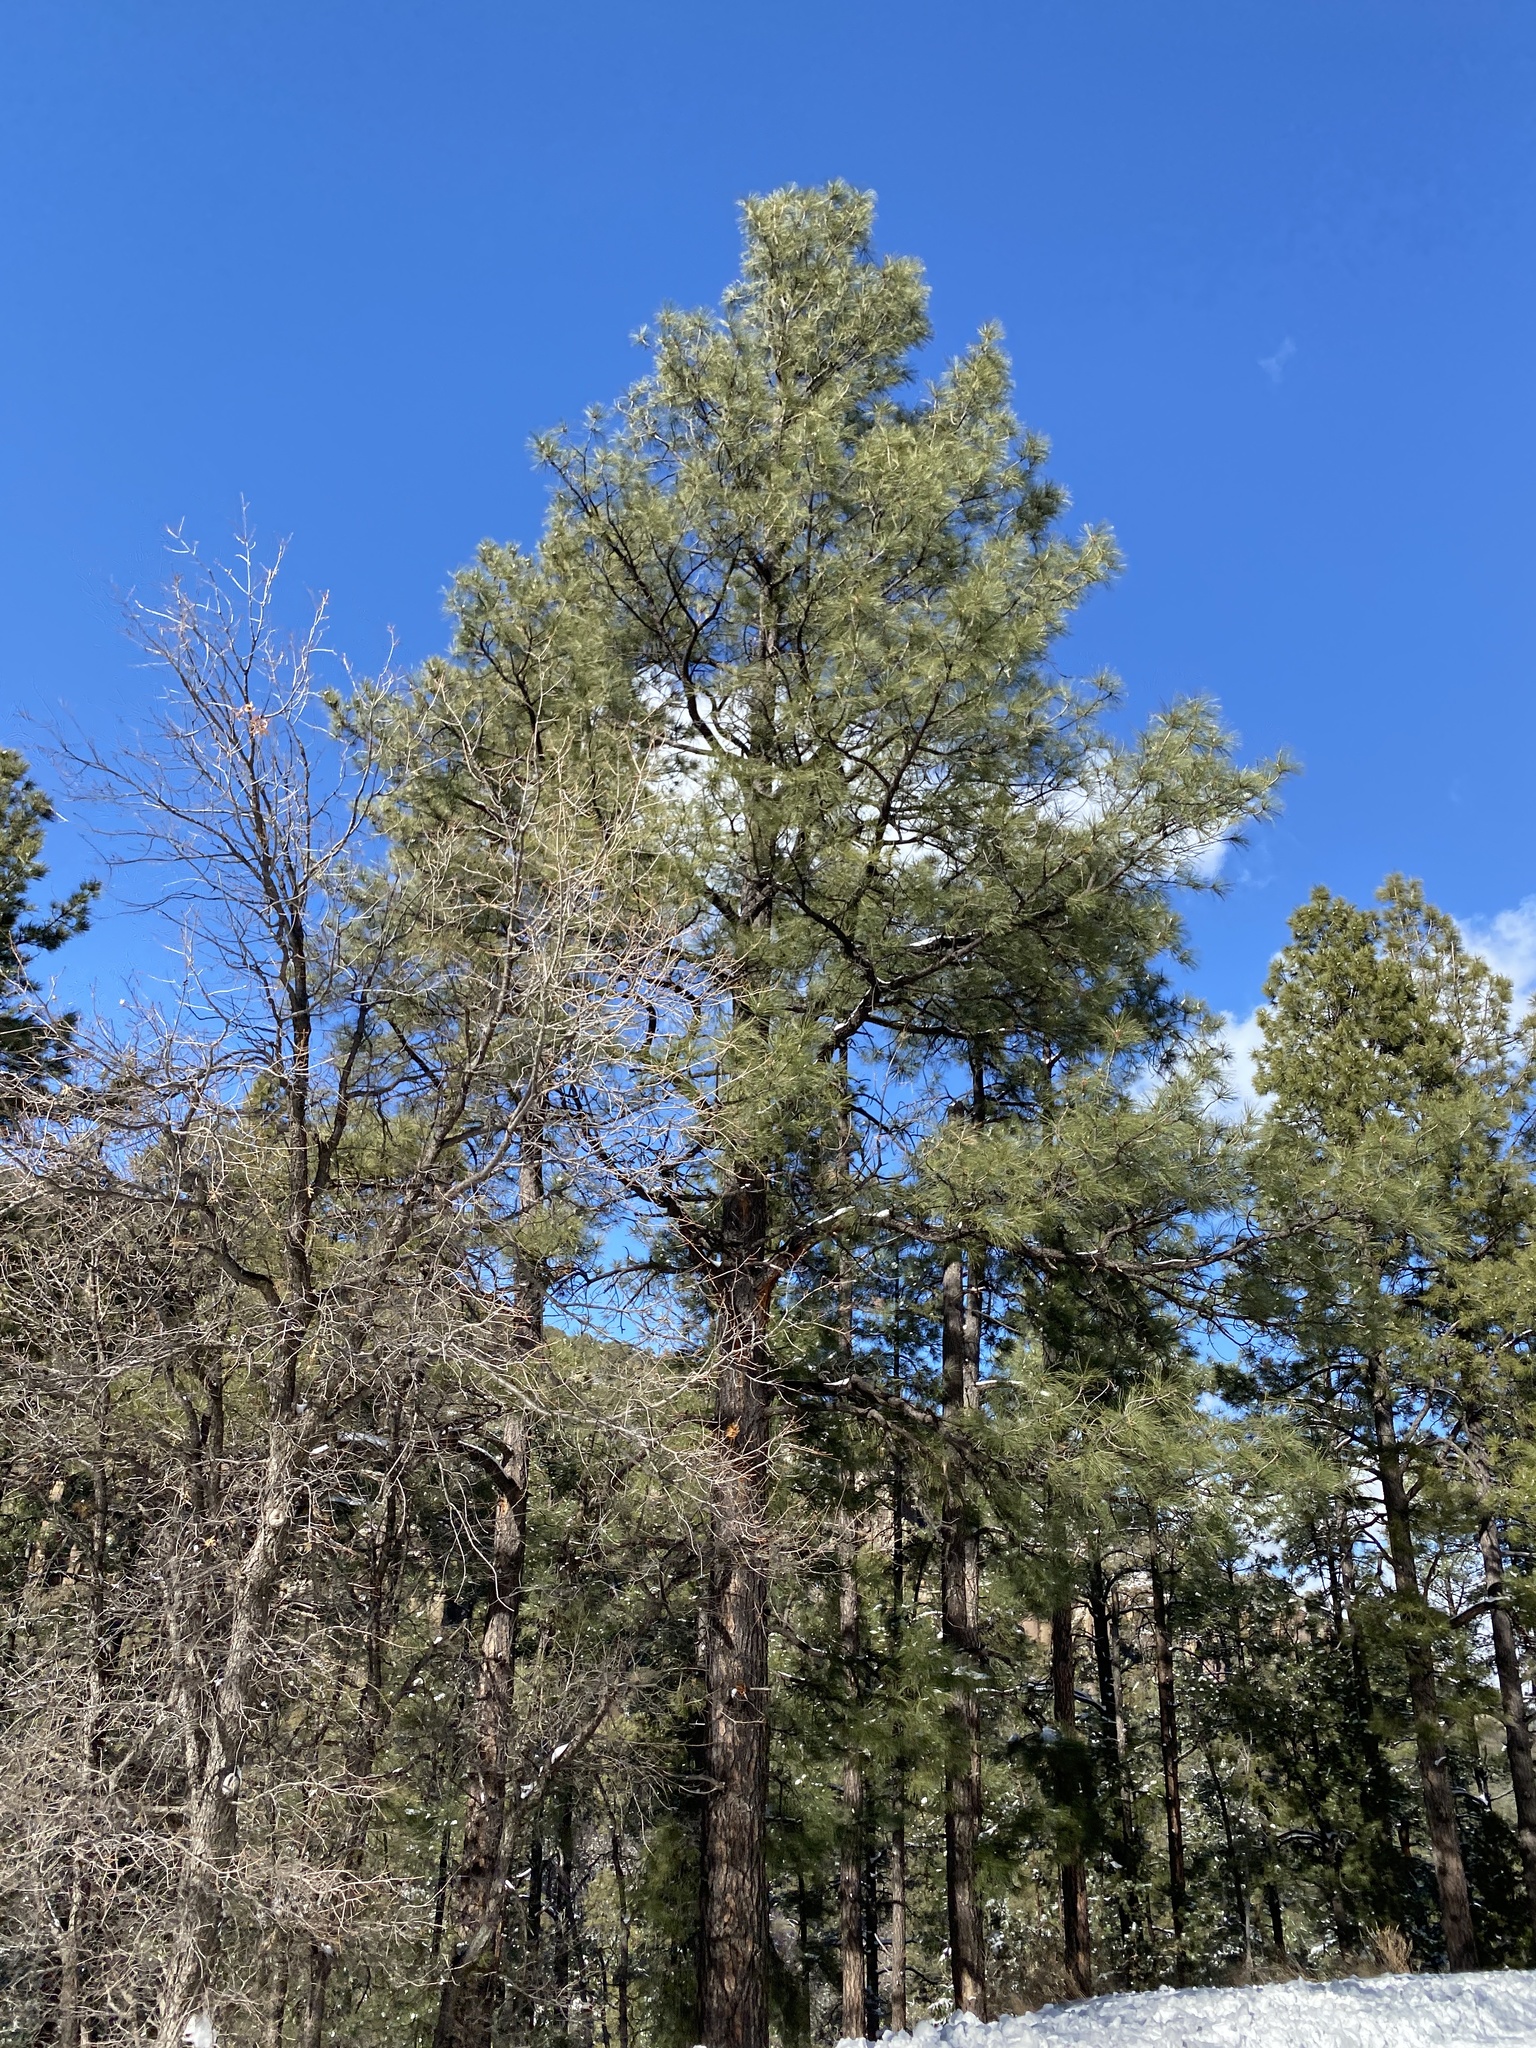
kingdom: Plantae
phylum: Tracheophyta
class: Pinopsida
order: Pinales
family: Pinaceae
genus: Pinus
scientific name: Pinus ponderosa
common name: Western yellow-pine
